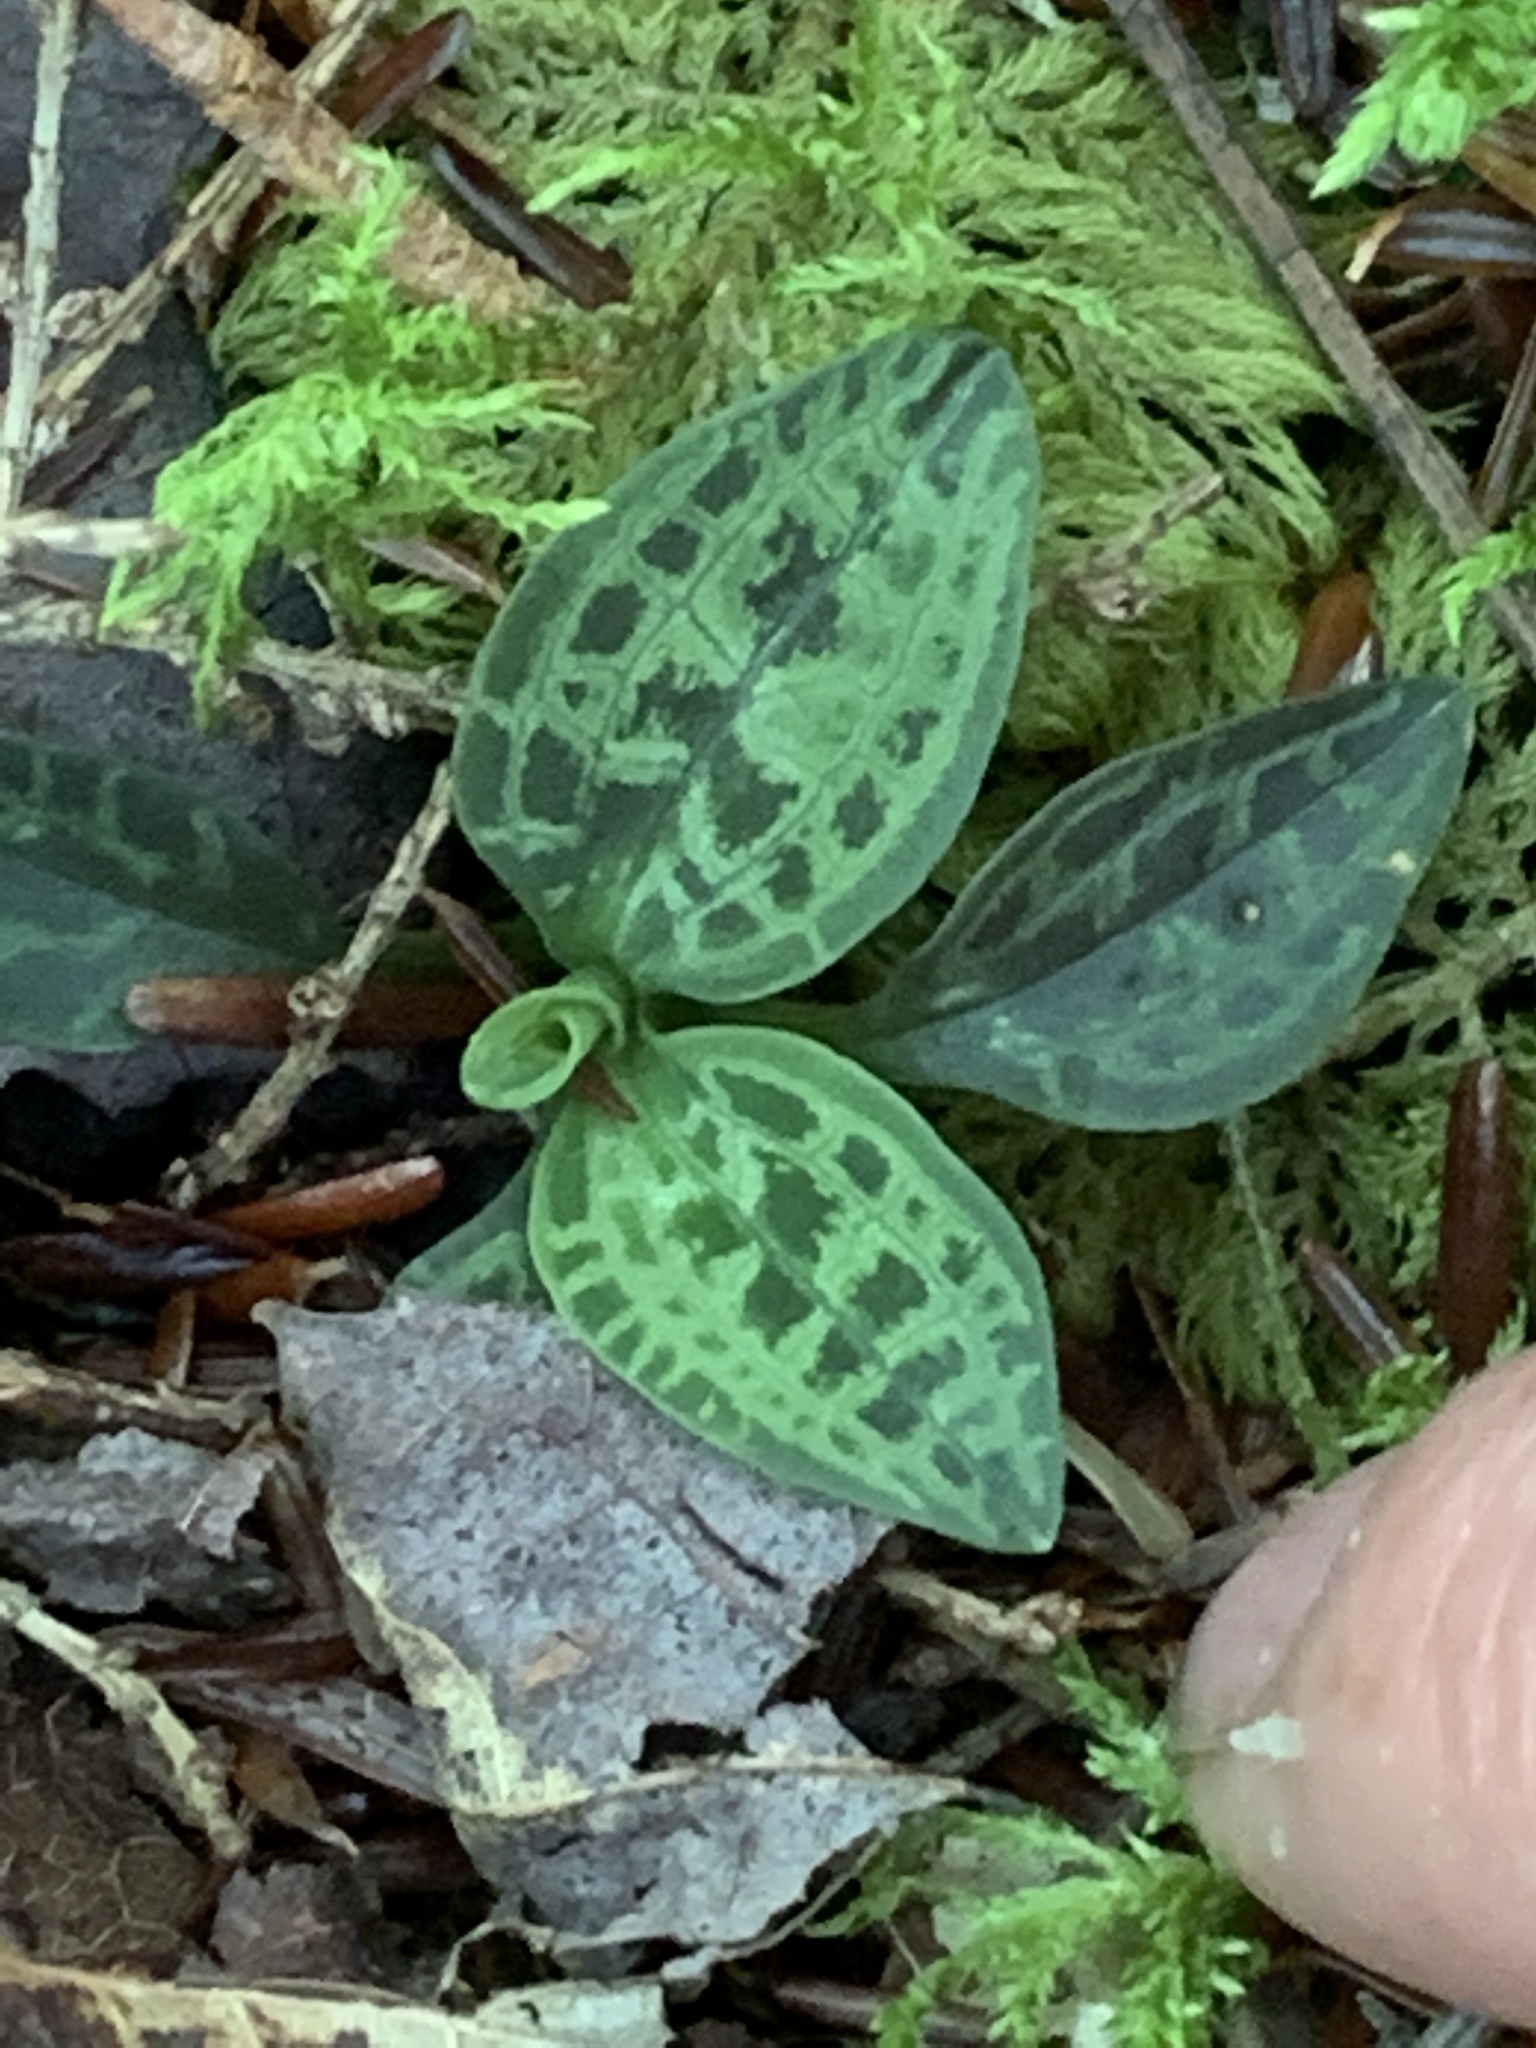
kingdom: Plantae
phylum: Tracheophyta
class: Liliopsida
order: Asparagales
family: Orchidaceae
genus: Goodyera
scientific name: Goodyera tesselata
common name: Checkered rattlesnake-plantain
